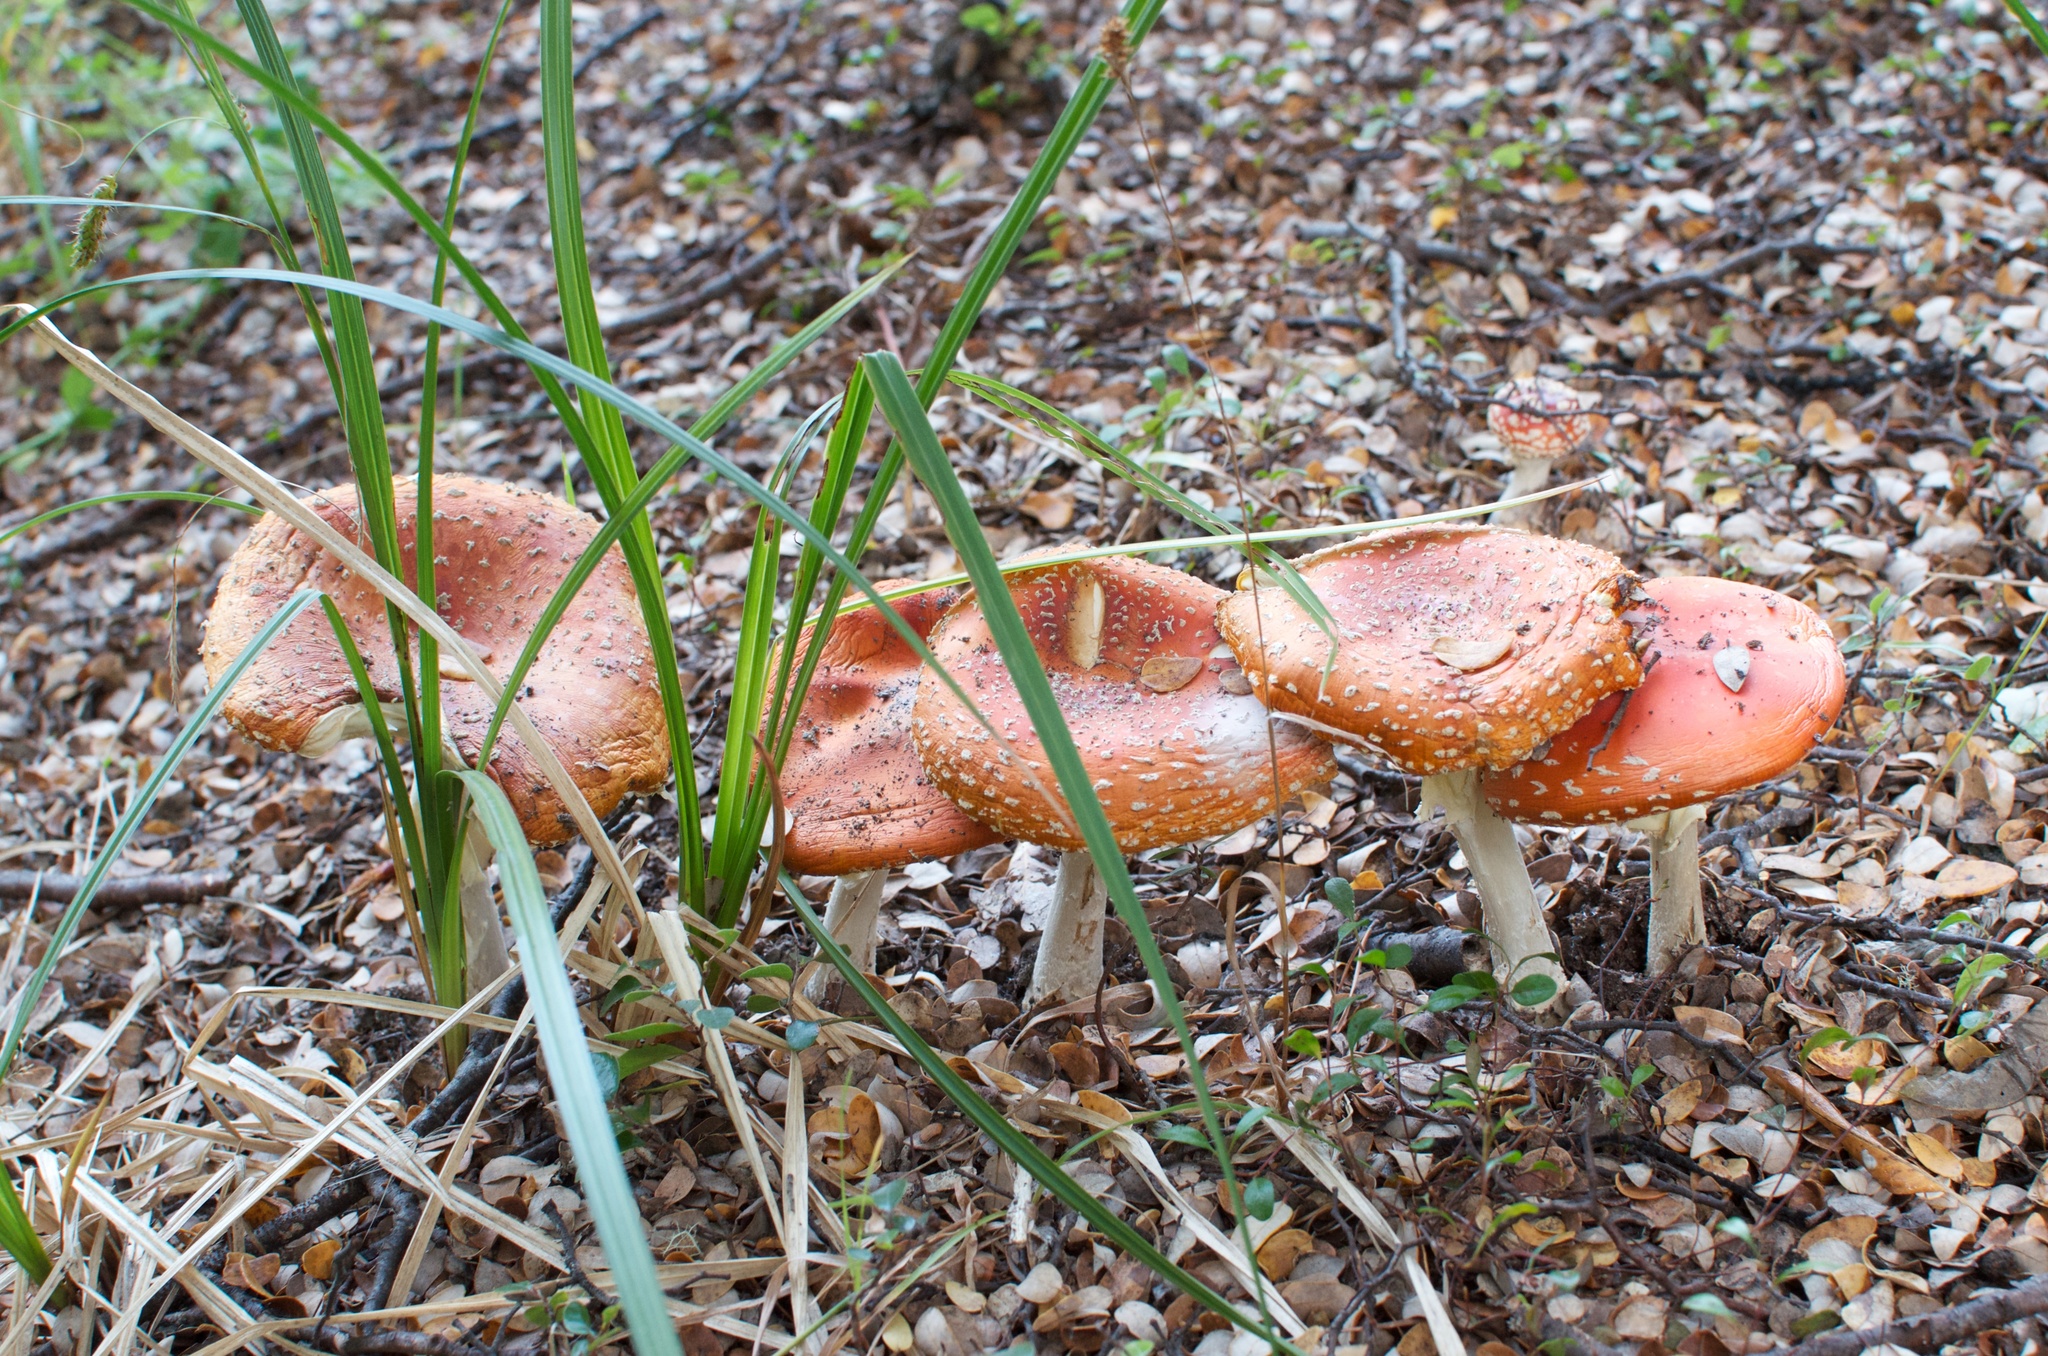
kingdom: Fungi
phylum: Basidiomycota
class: Agaricomycetes
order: Agaricales
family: Amanitaceae
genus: Amanita
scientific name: Amanita muscaria
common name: Fly agaric
